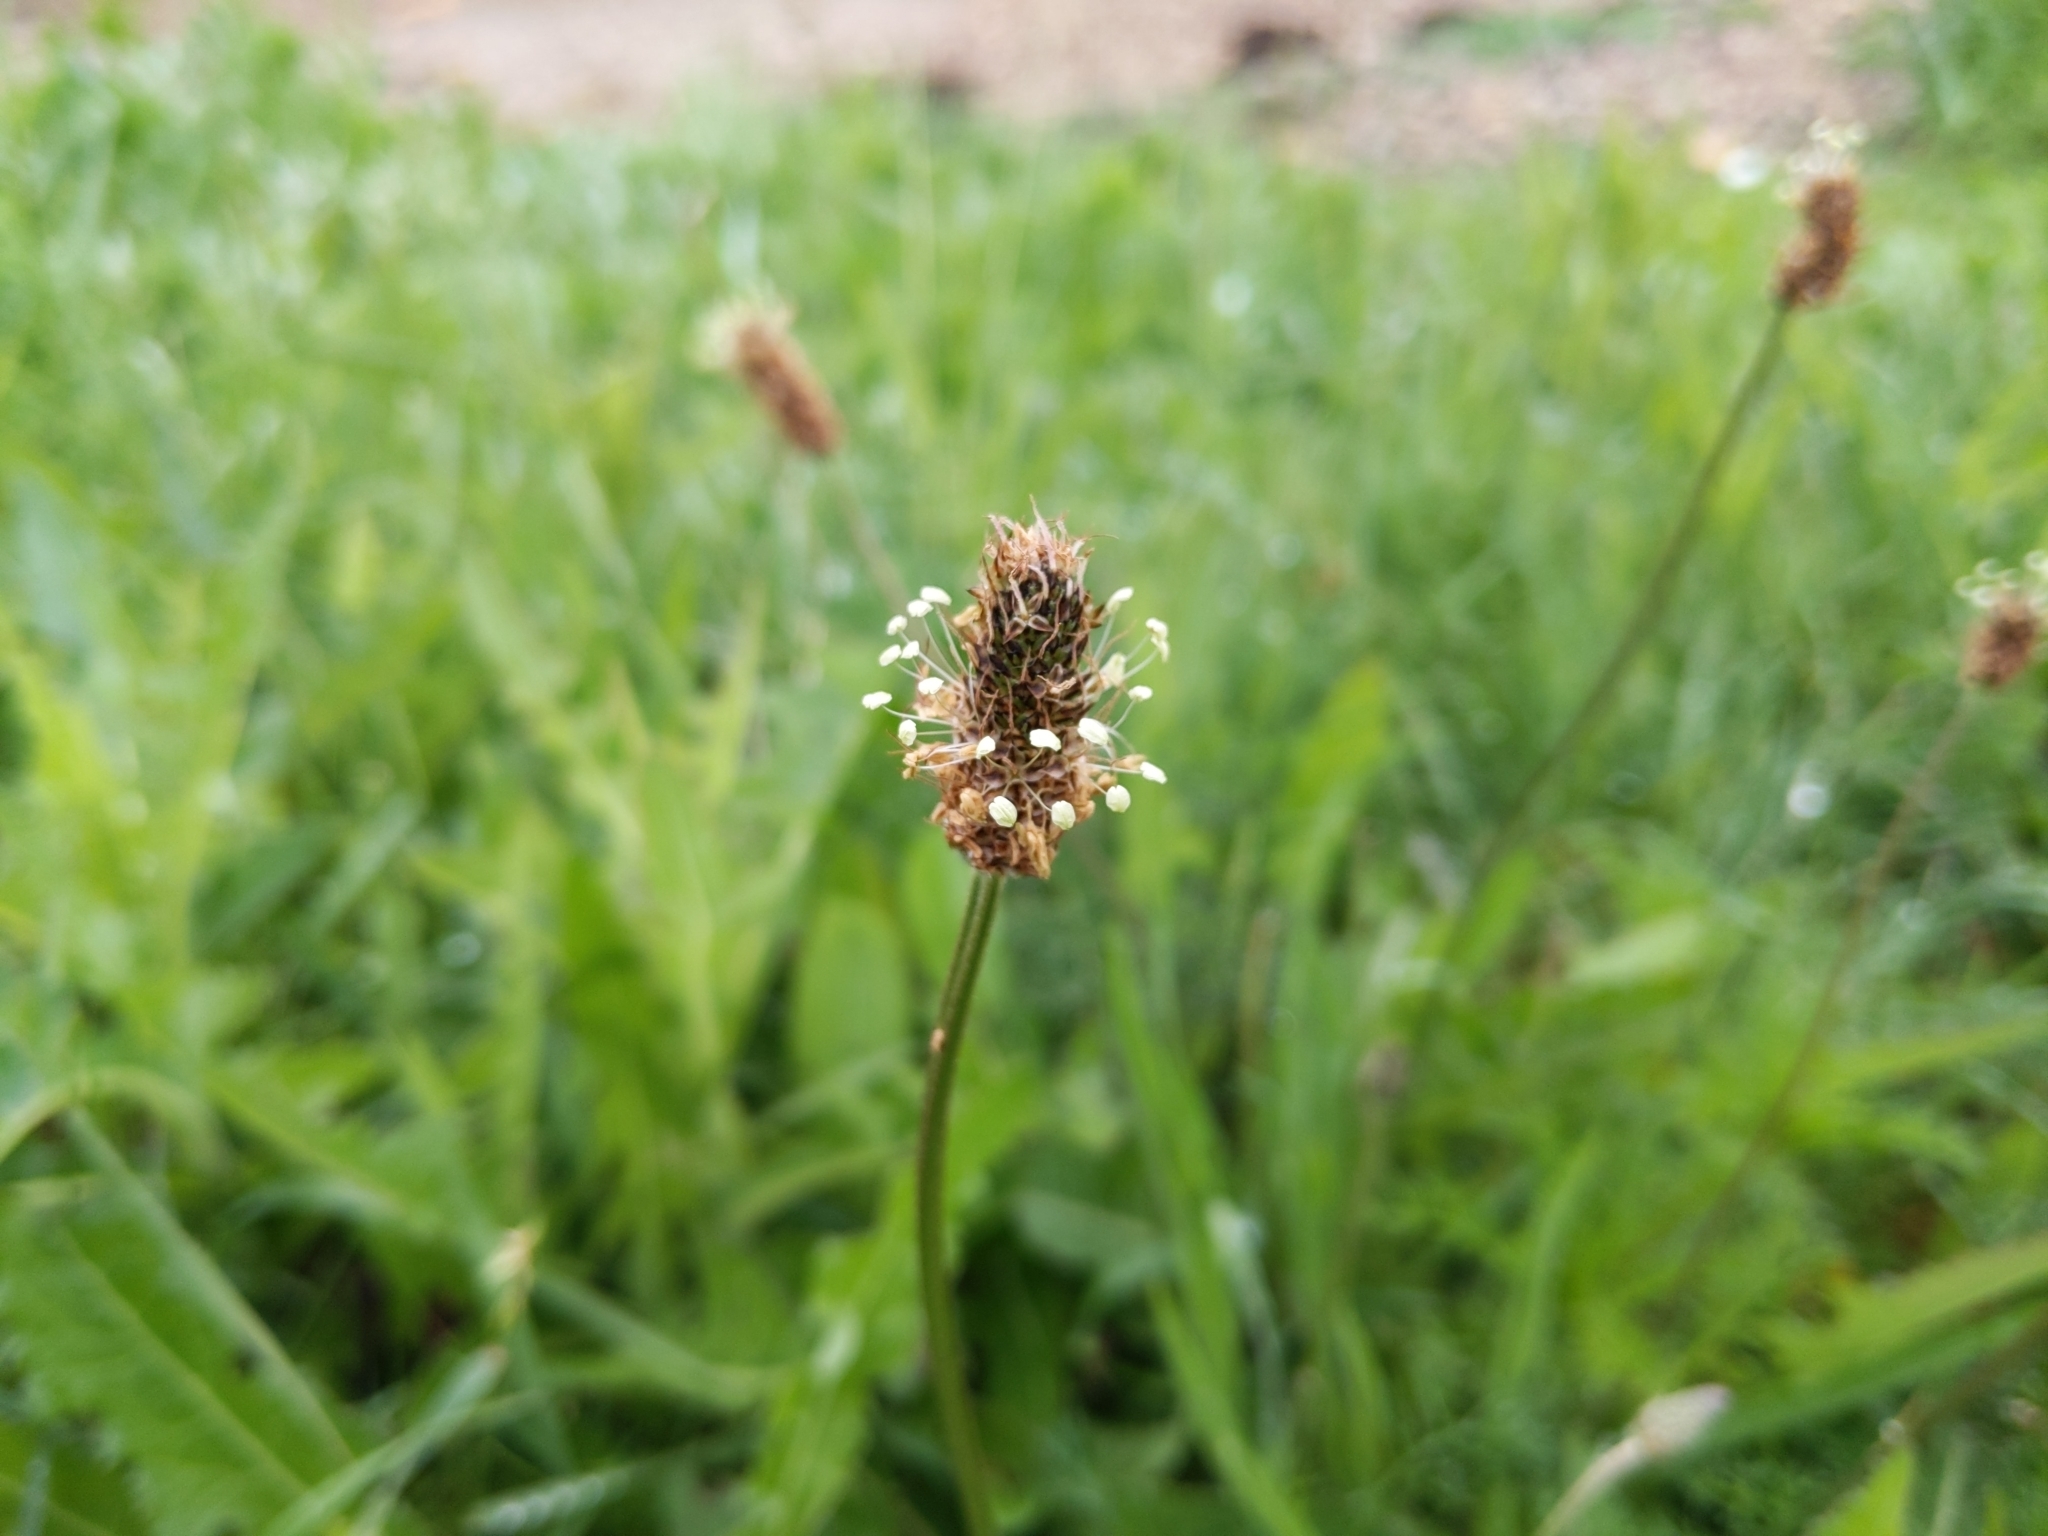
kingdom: Plantae
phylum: Tracheophyta
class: Magnoliopsida
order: Lamiales
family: Plantaginaceae
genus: Plantago
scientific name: Plantago lanceolata
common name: Ribwort plantain
